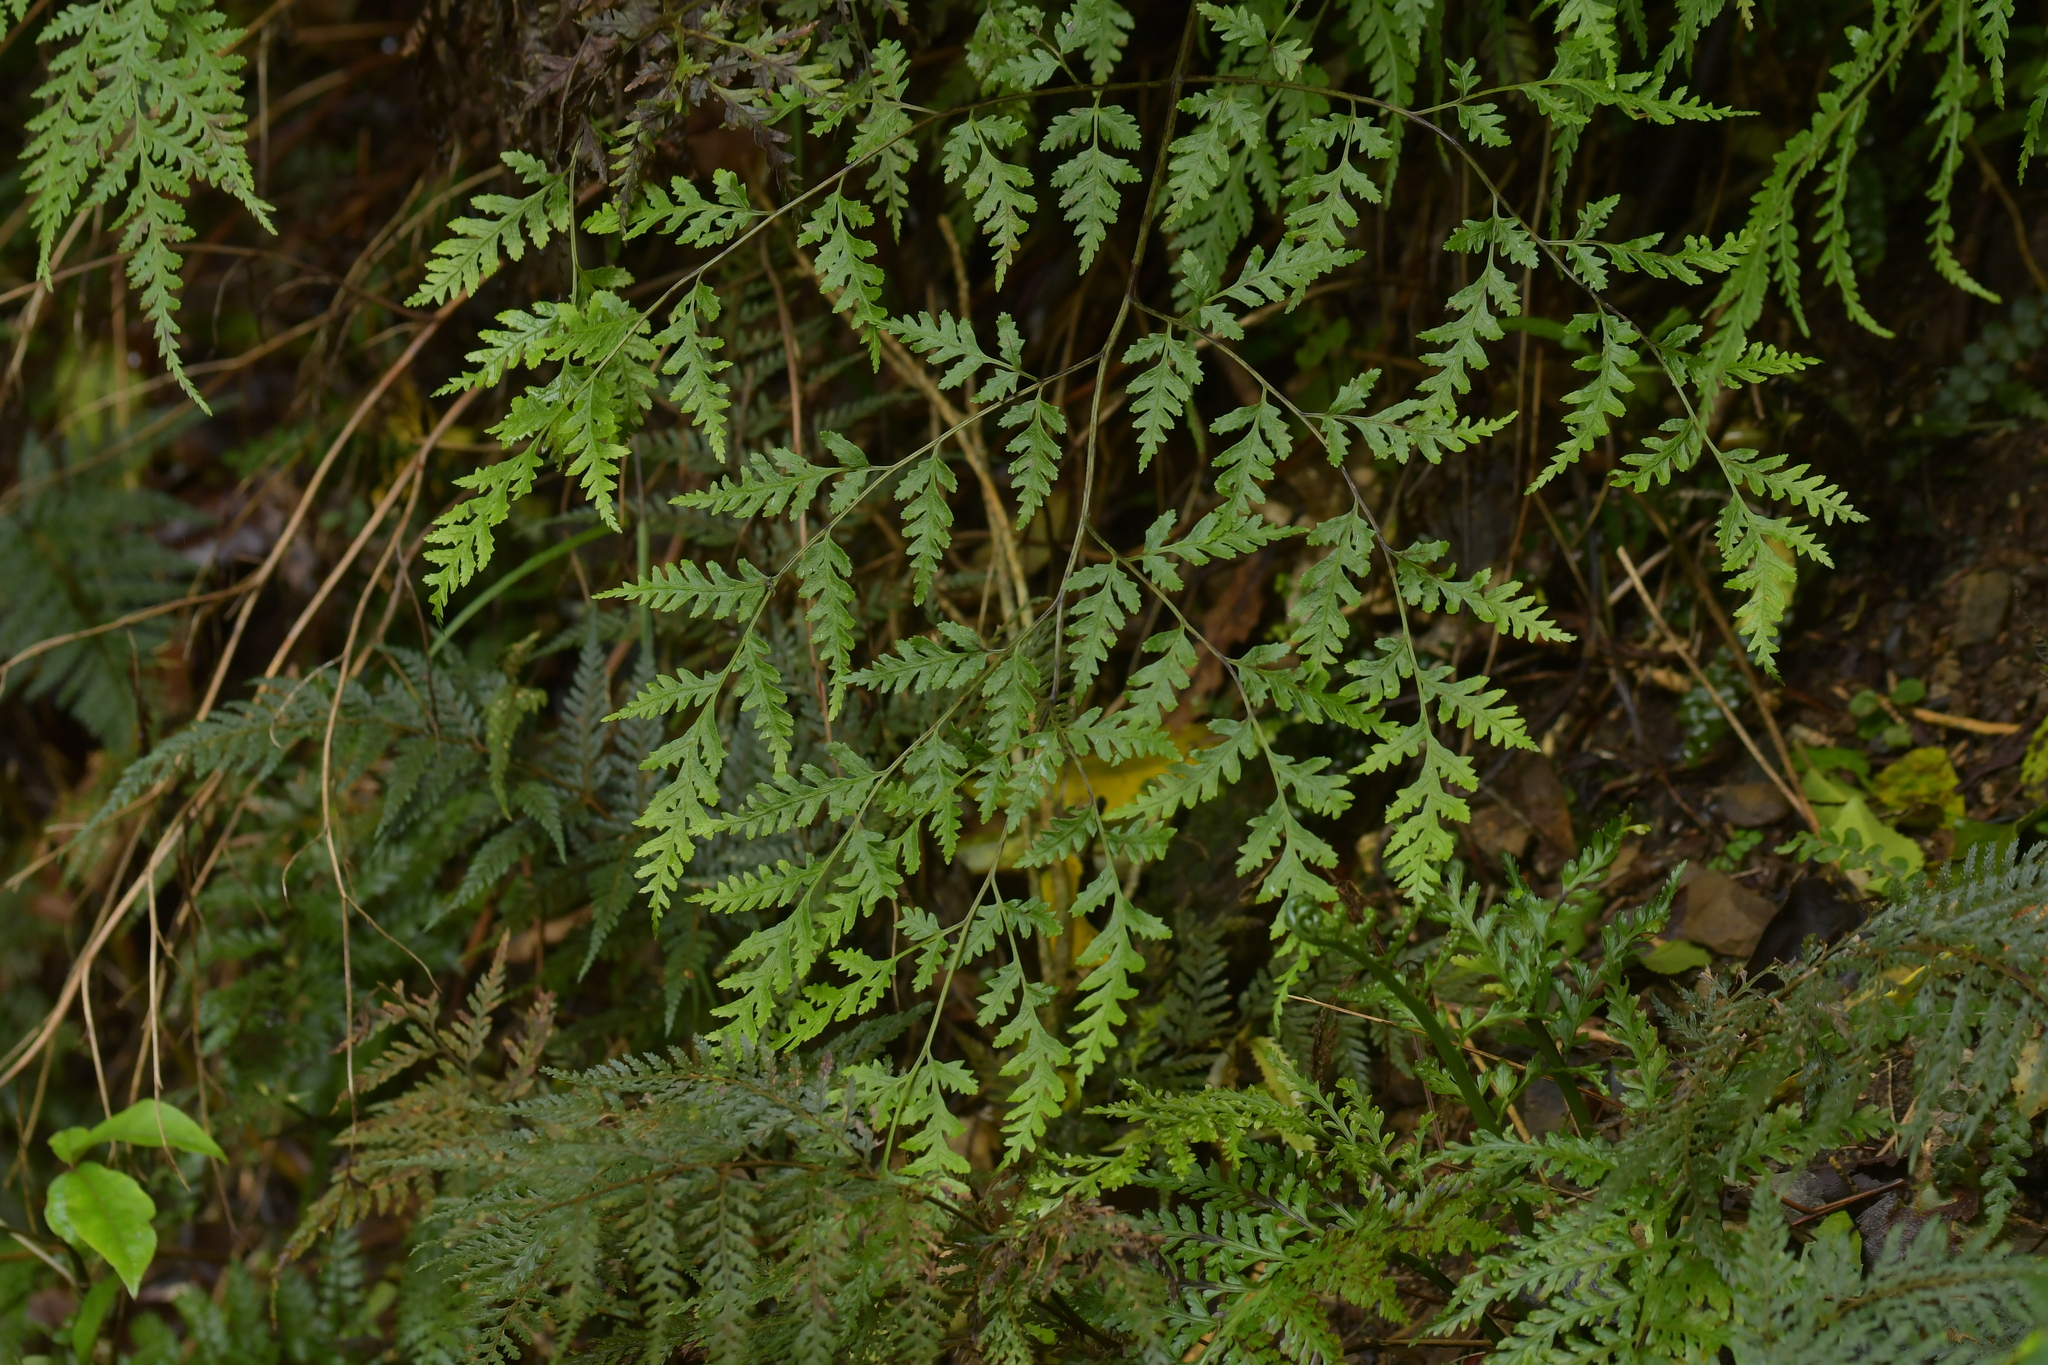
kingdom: Plantae
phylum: Tracheophyta
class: Polypodiopsida
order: Polypodiales
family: Pteridaceae
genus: Pteris
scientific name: Pteris macilenta
